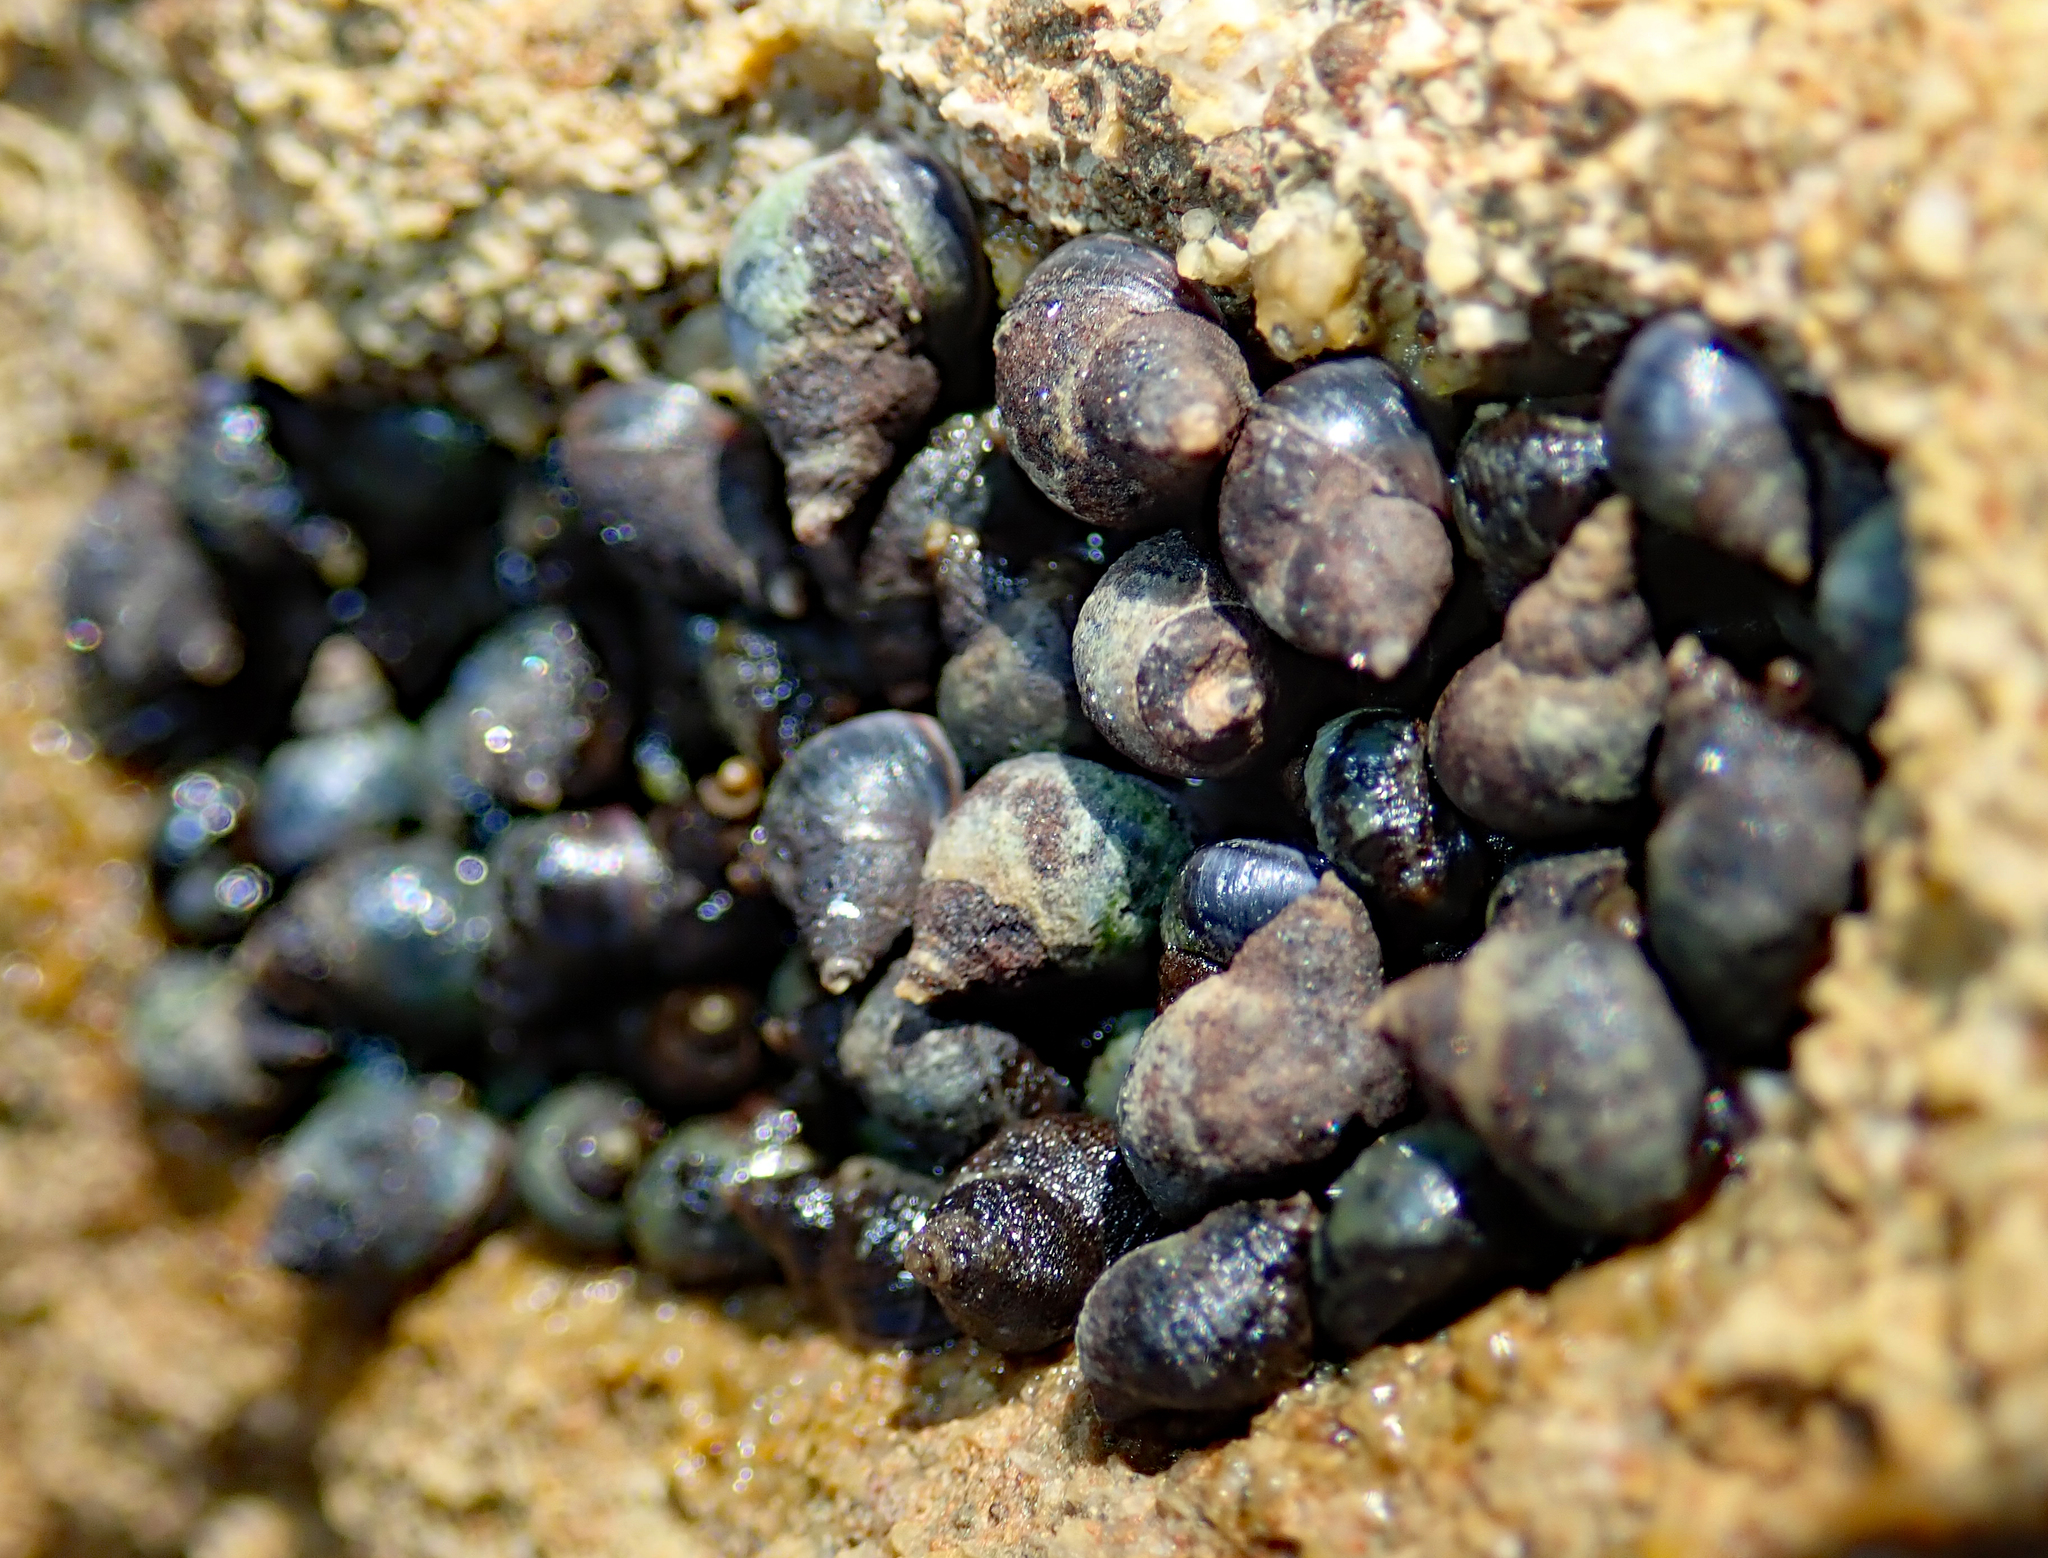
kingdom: Animalia
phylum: Mollusca
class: Gastropoda
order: Littorinimorpha
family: Littorinidae
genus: Austrolittorina
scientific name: Austrolittorina cincta
